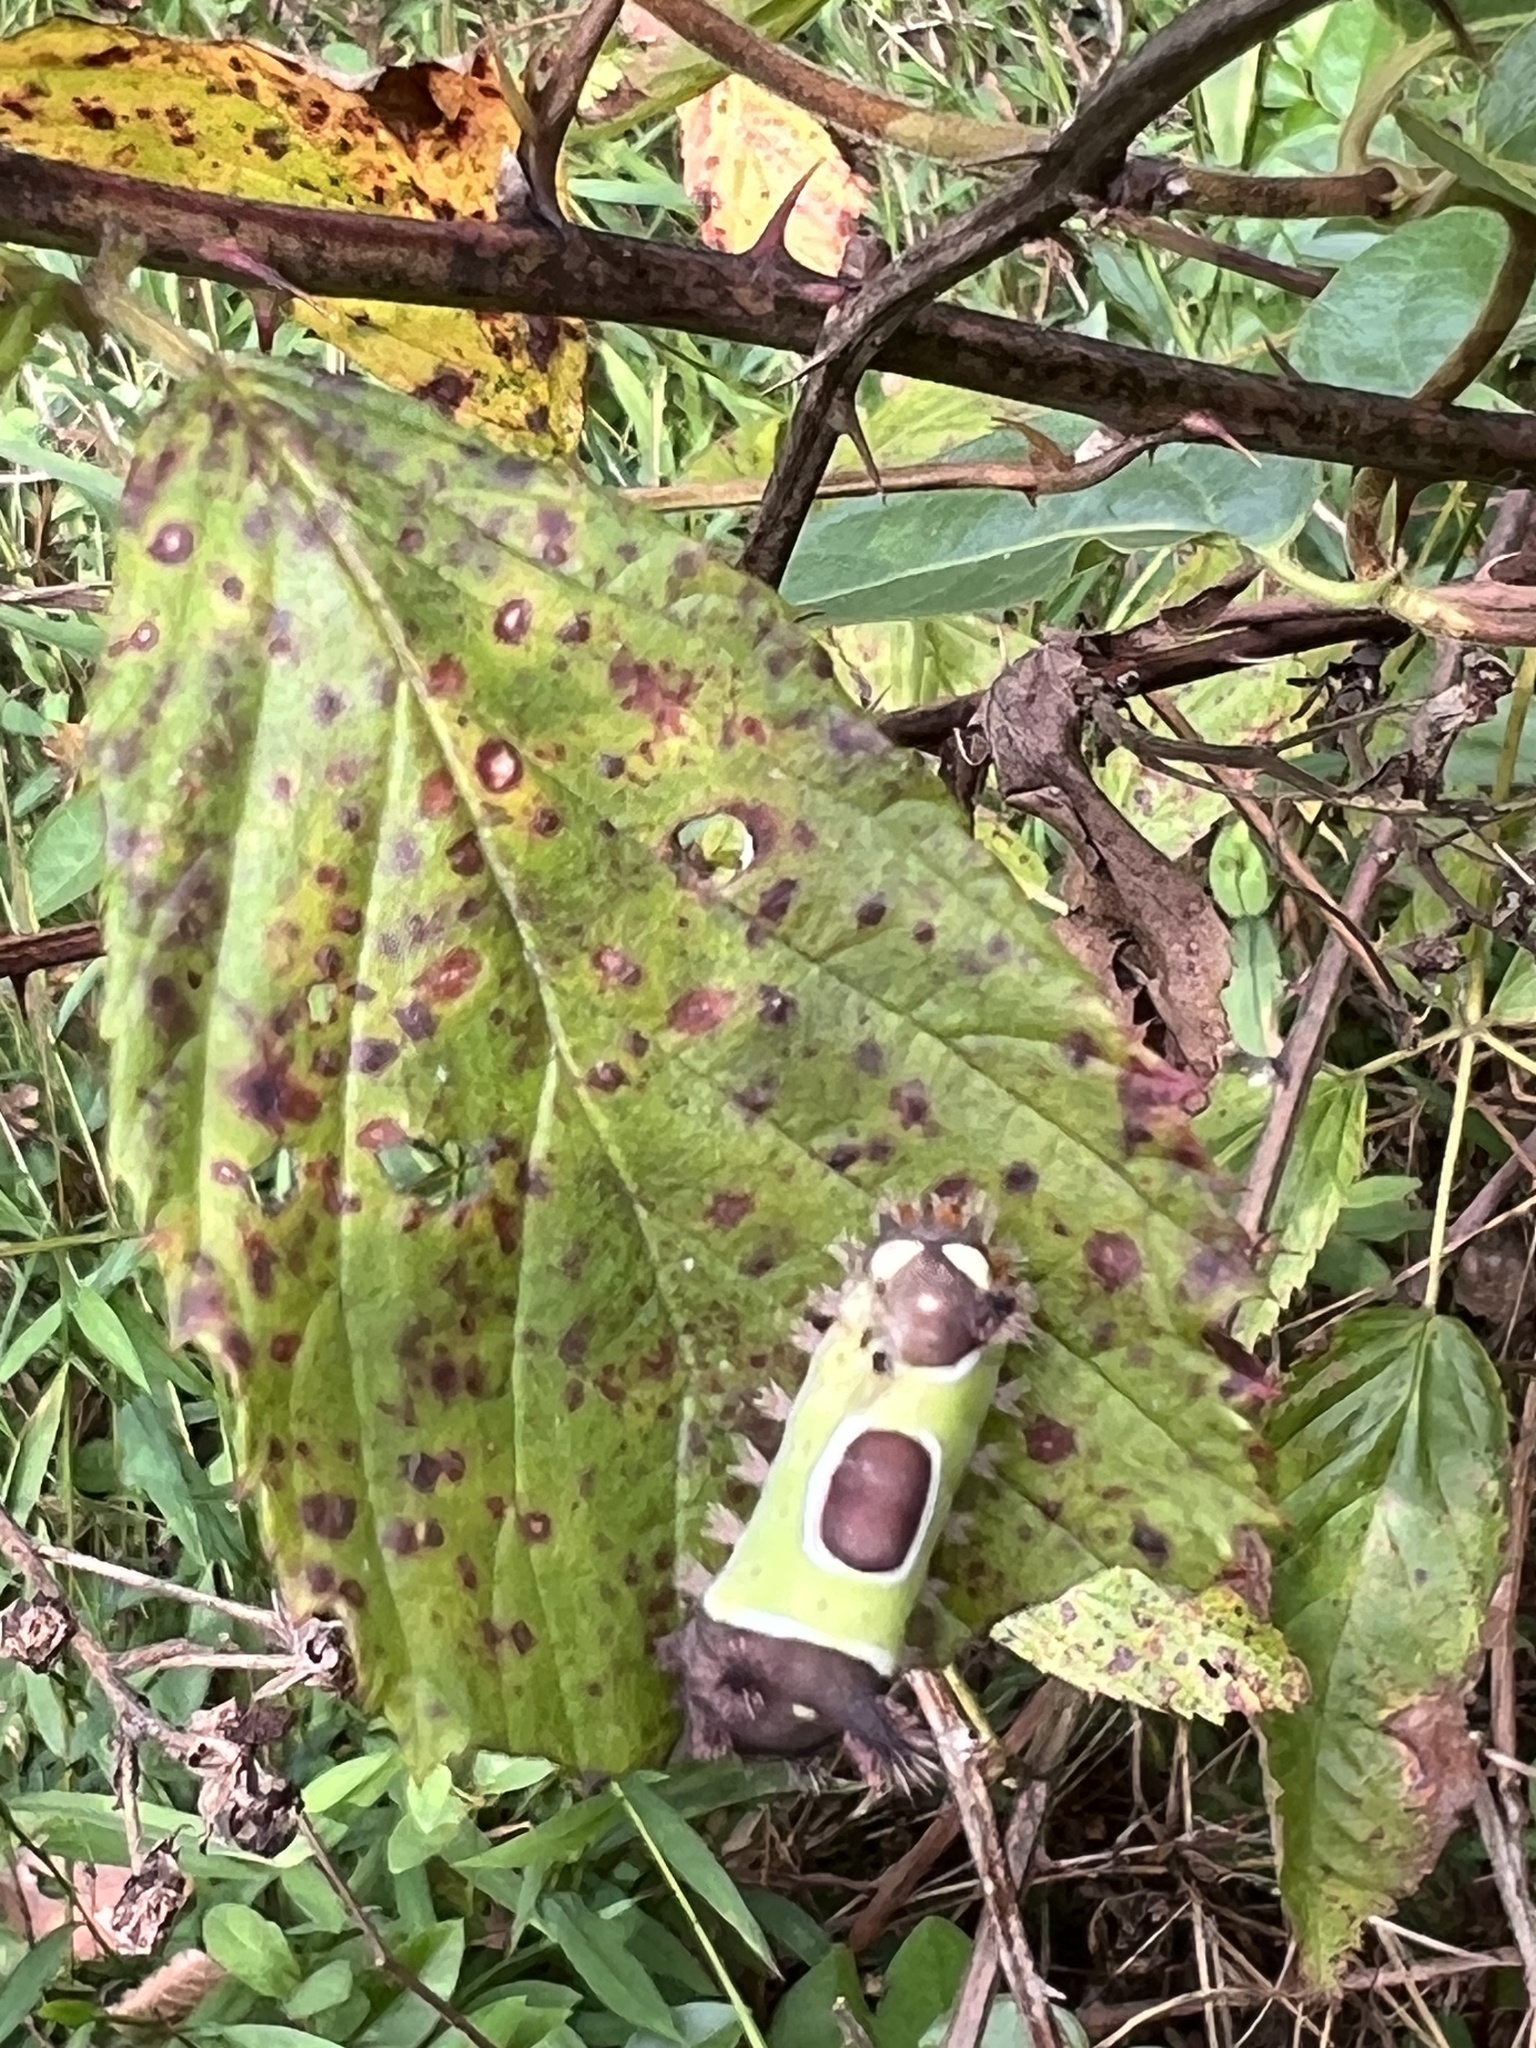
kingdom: Animalia
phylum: Arthropoda
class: Insecta
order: Lepidoptera
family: Limacodidae
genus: Acharia
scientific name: Acharia stimulea
